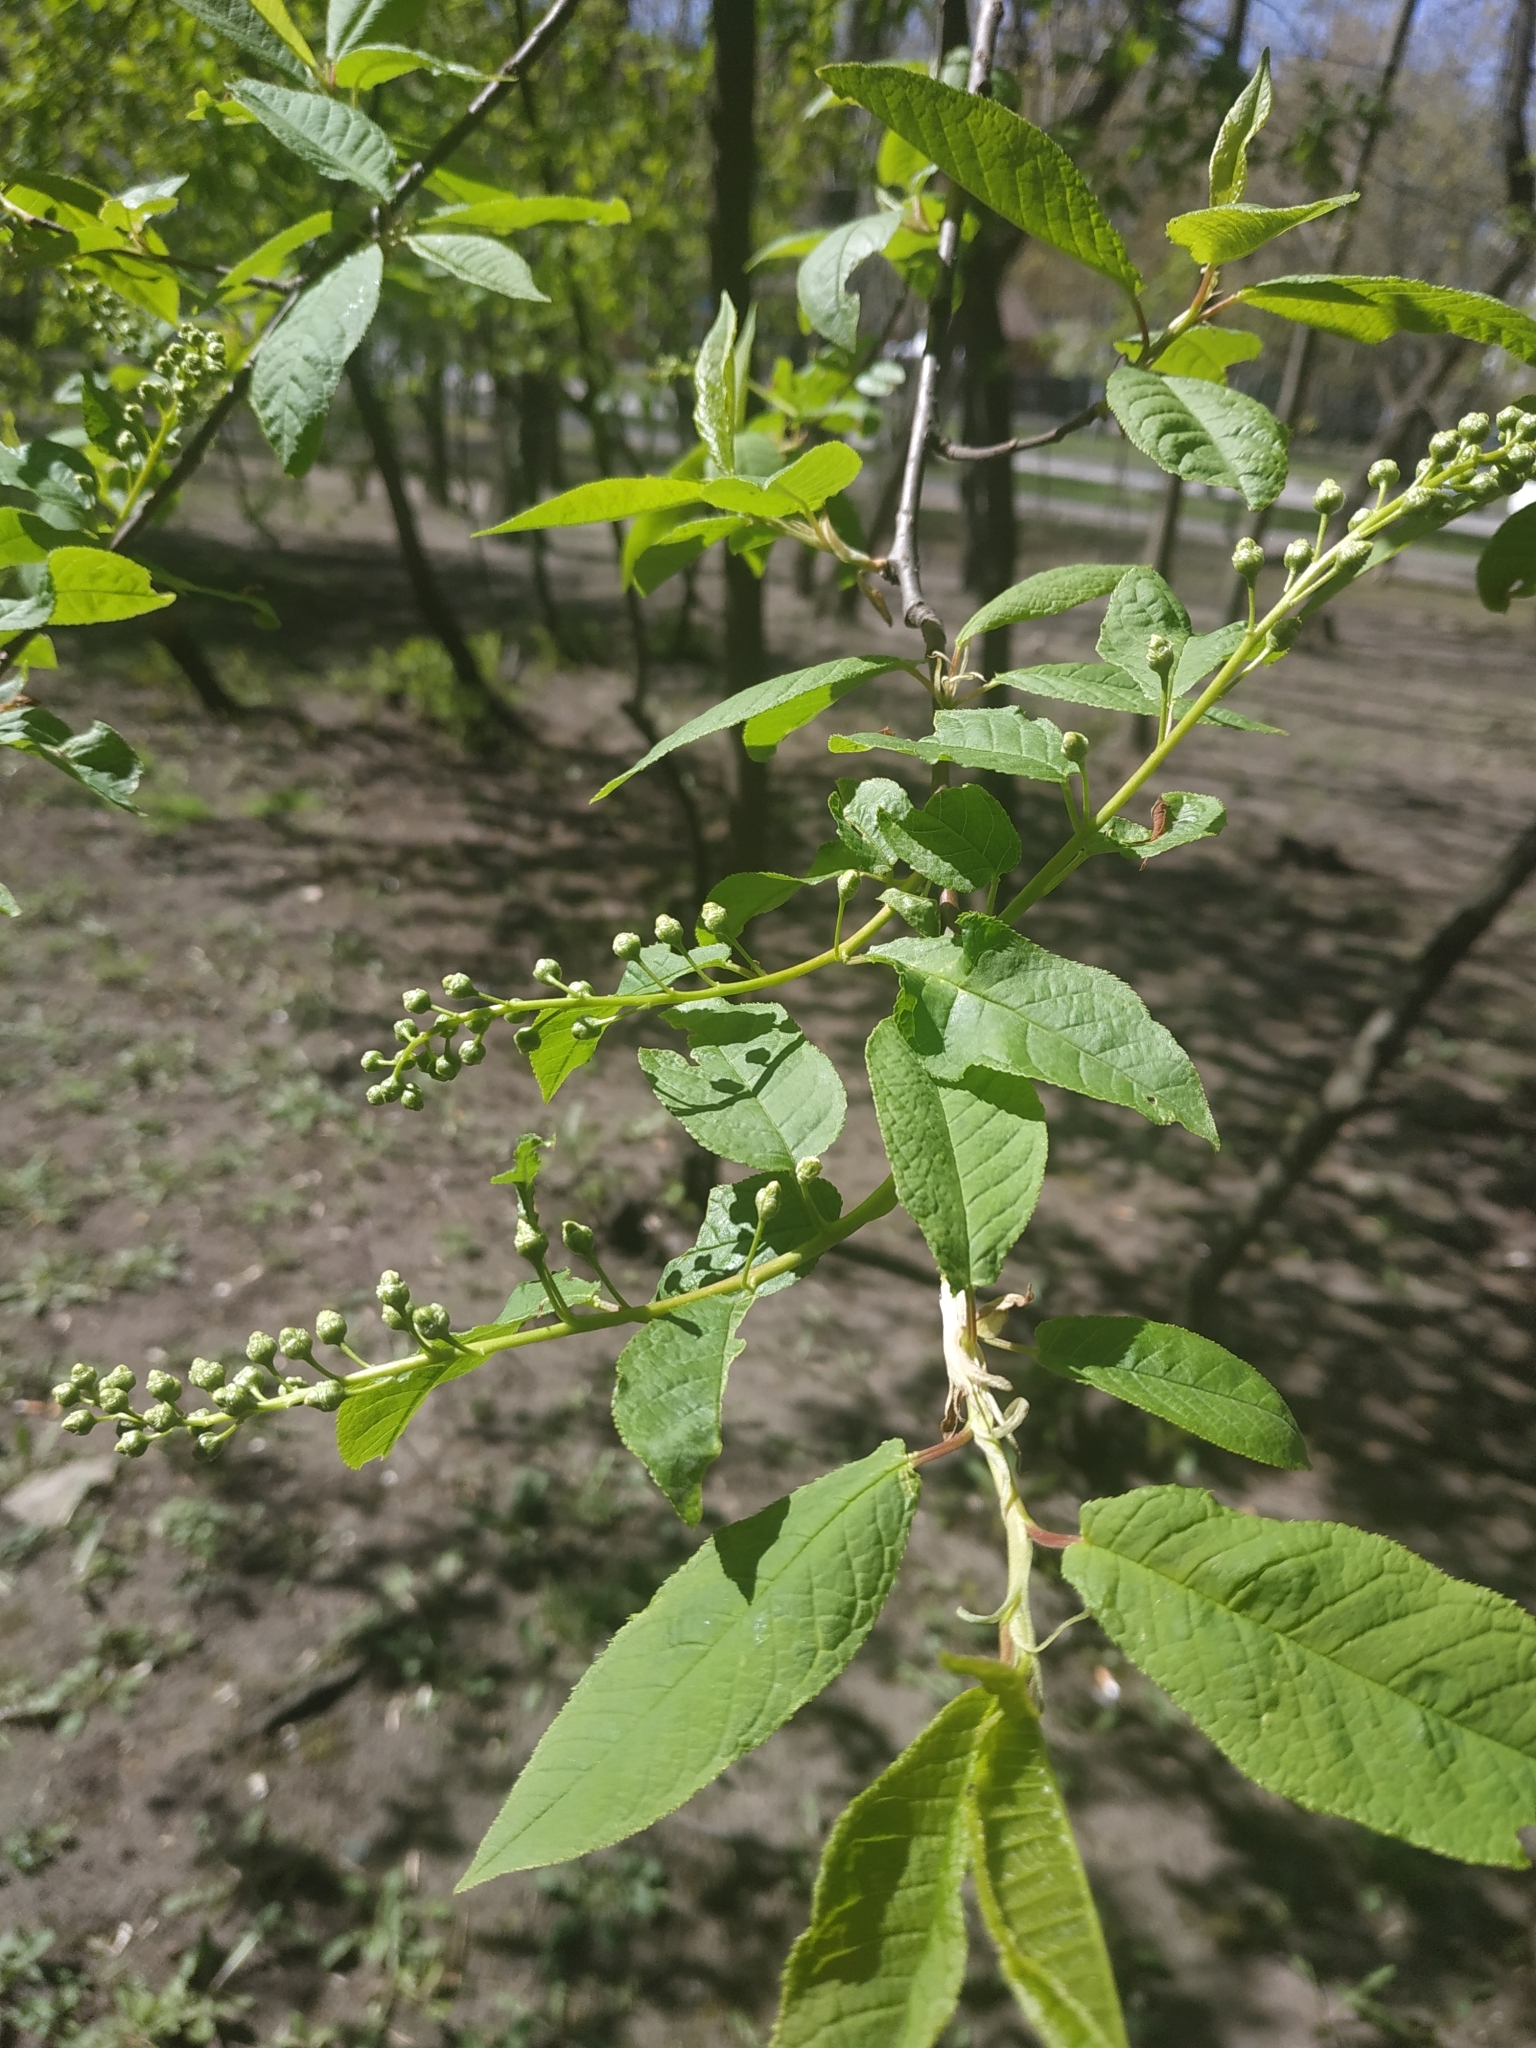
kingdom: Plantae
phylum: Tracheophyta
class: Magnoliopsida
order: Rosales
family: Rosaceae
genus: Prunus
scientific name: Prunus padus
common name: Bird cherry
